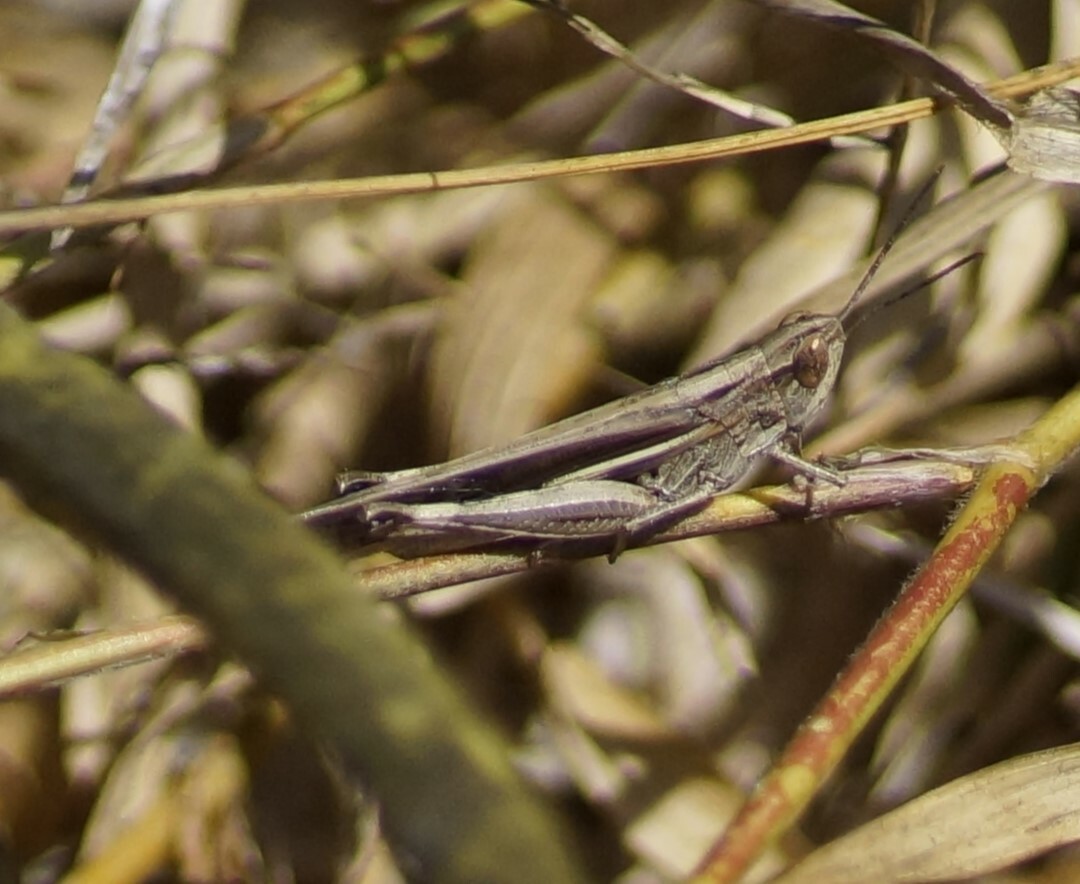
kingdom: Animalia
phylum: Arthropoda
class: Insecta
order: Orthoptera
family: Acrididae
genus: Aiolopus
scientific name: Aiolopus thalassinus
